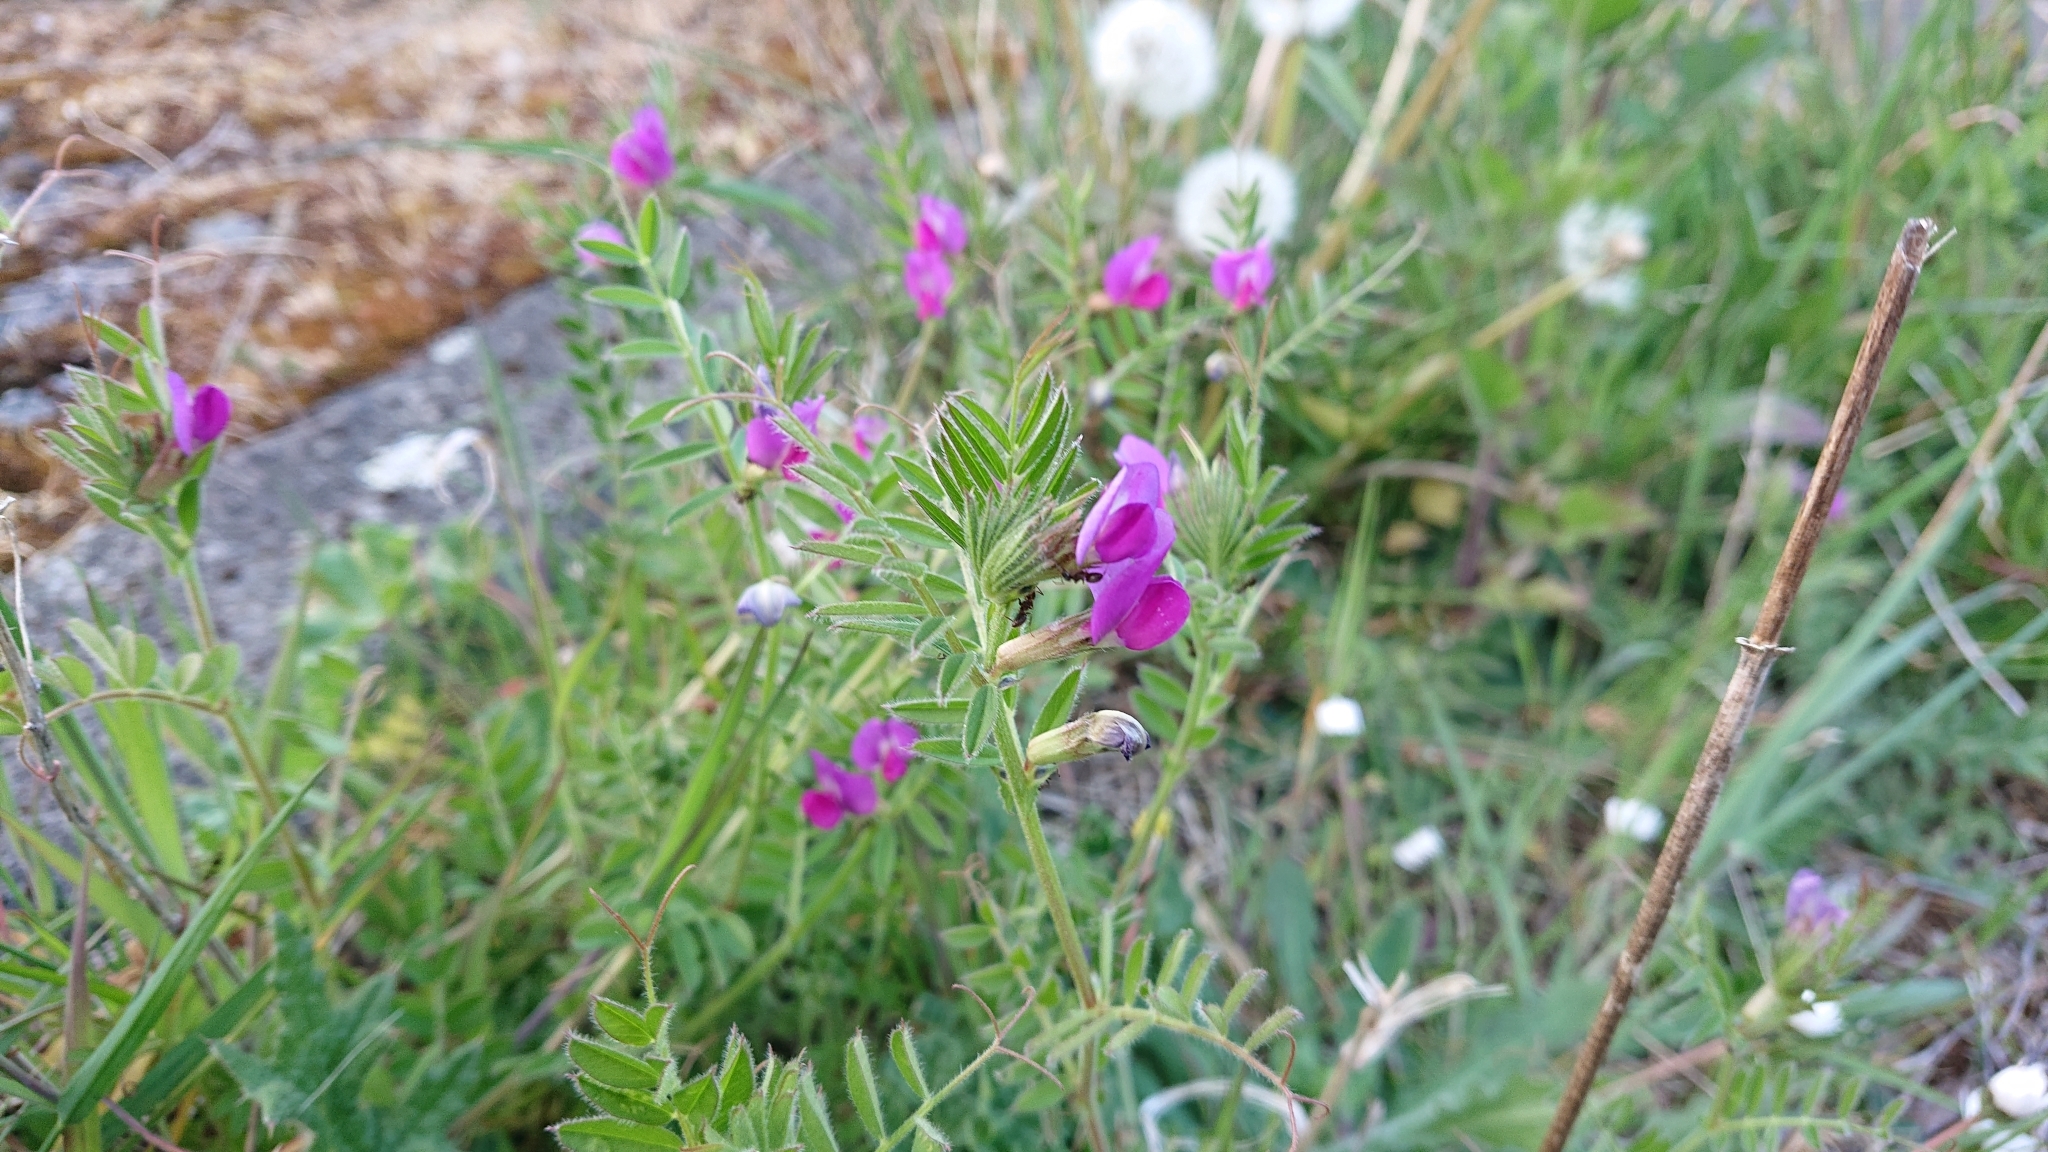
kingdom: Plantae
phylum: Tracheophyta
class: Magnoliopsida
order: Fabales
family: Fabaceae
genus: Vicia
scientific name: Vicia sativa
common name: Garden vetch
